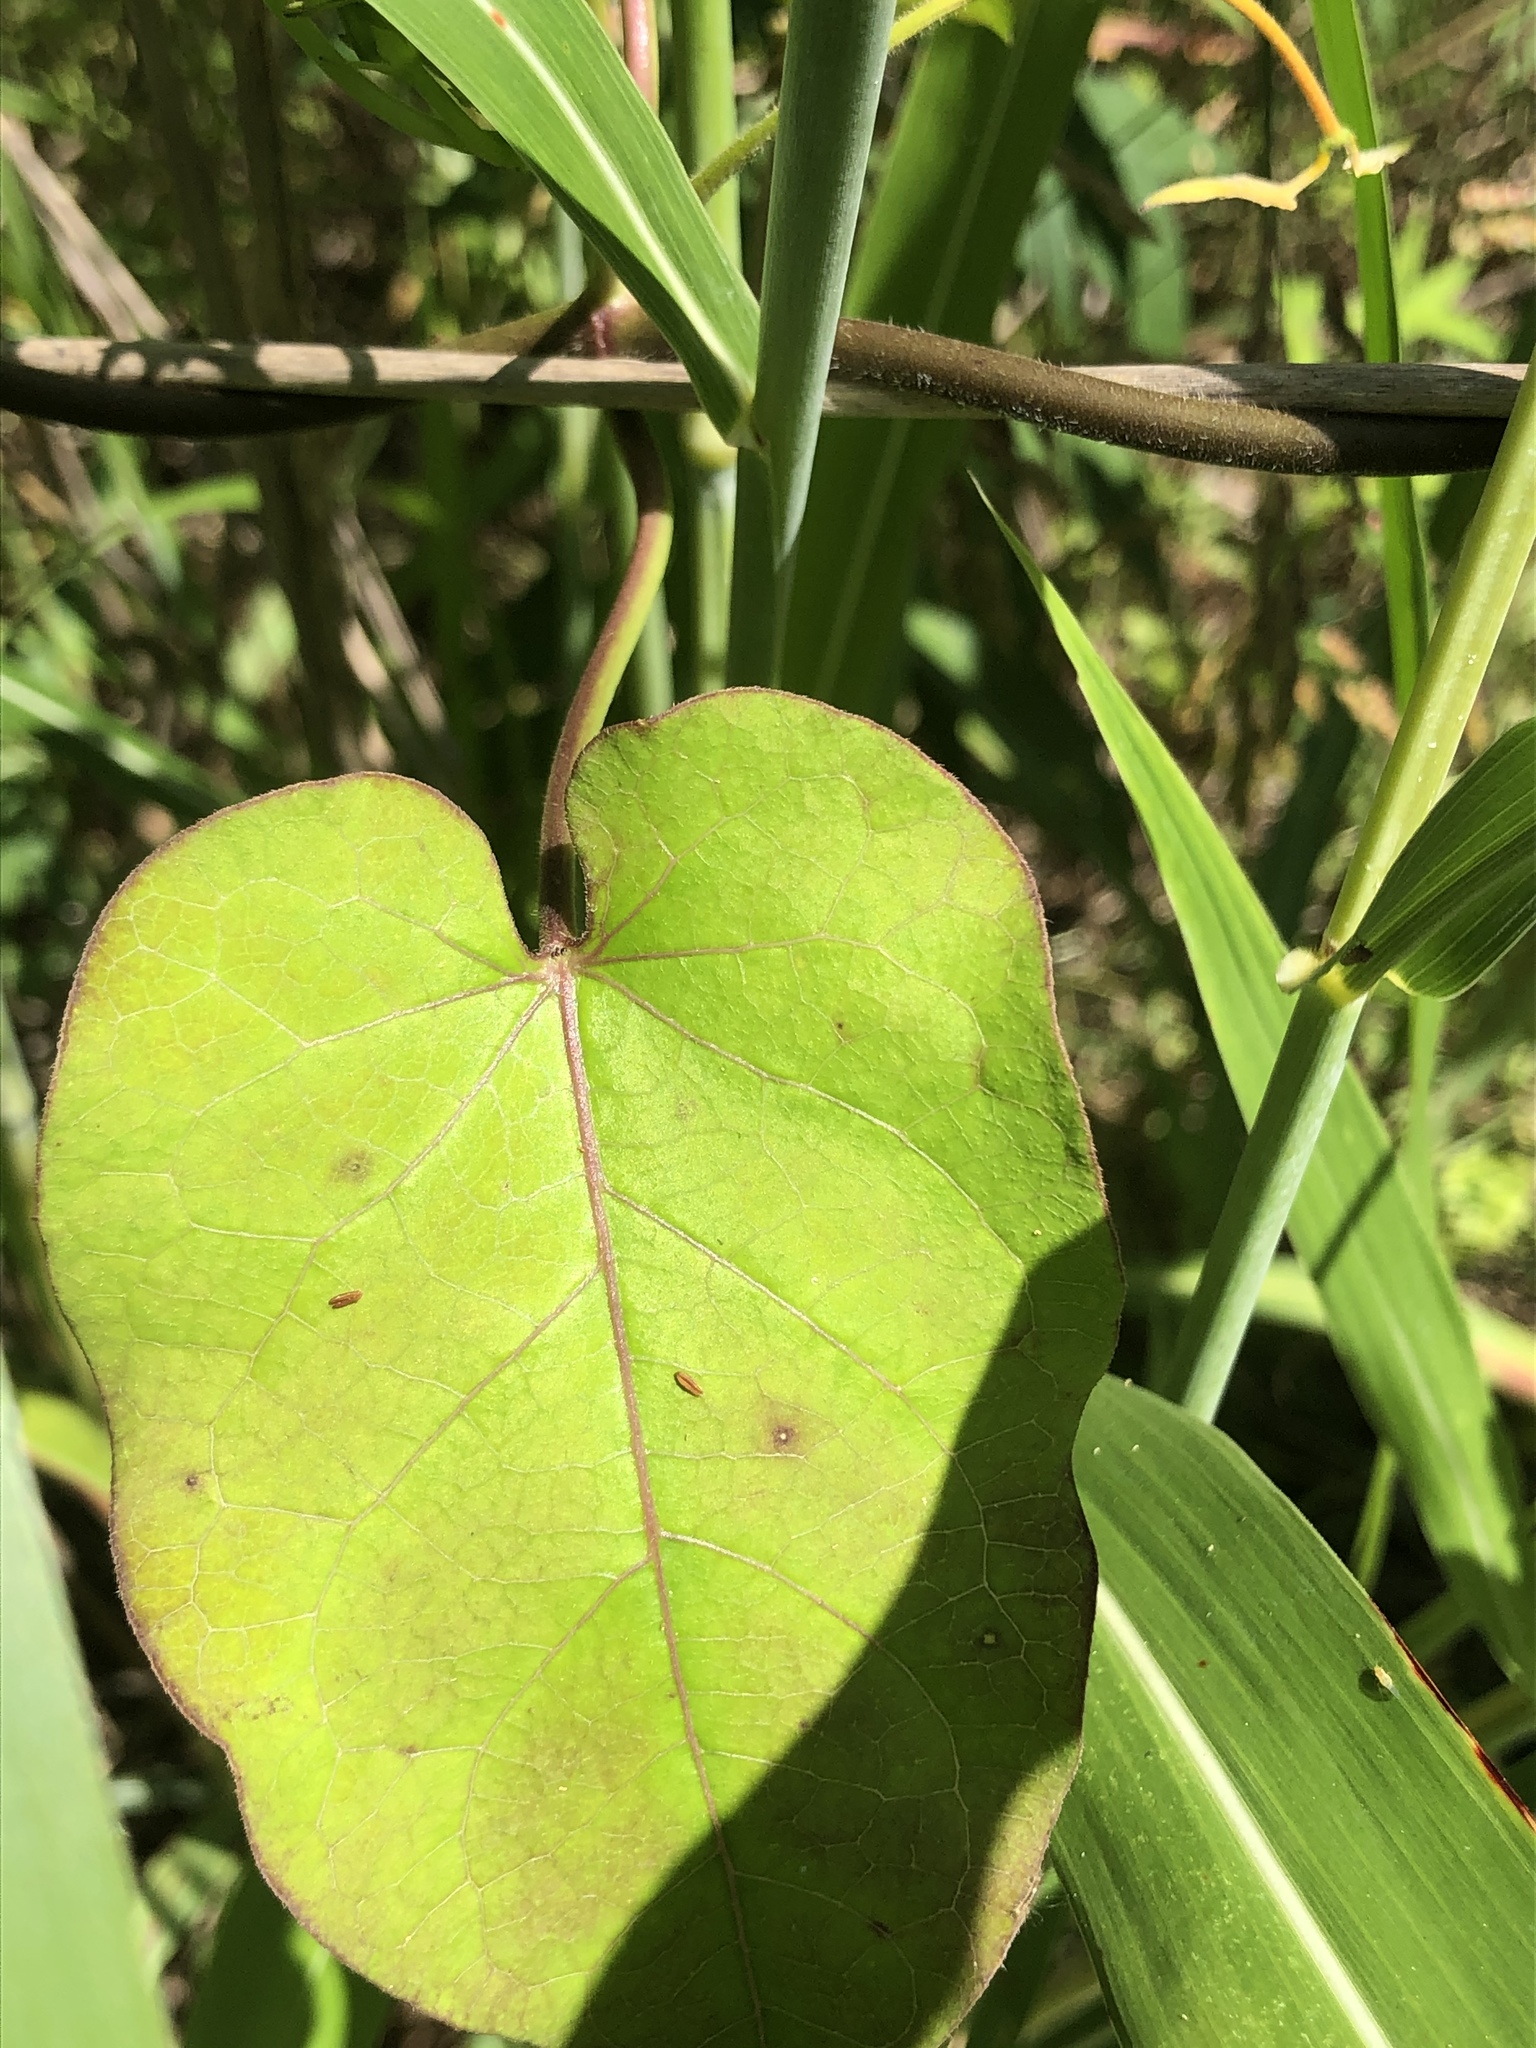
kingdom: Plantae
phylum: Tracheophyta
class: Magnoliopsida
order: Gentianales
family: Apocynaceae
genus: Gonolobus
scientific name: Gonolobus suberosus
